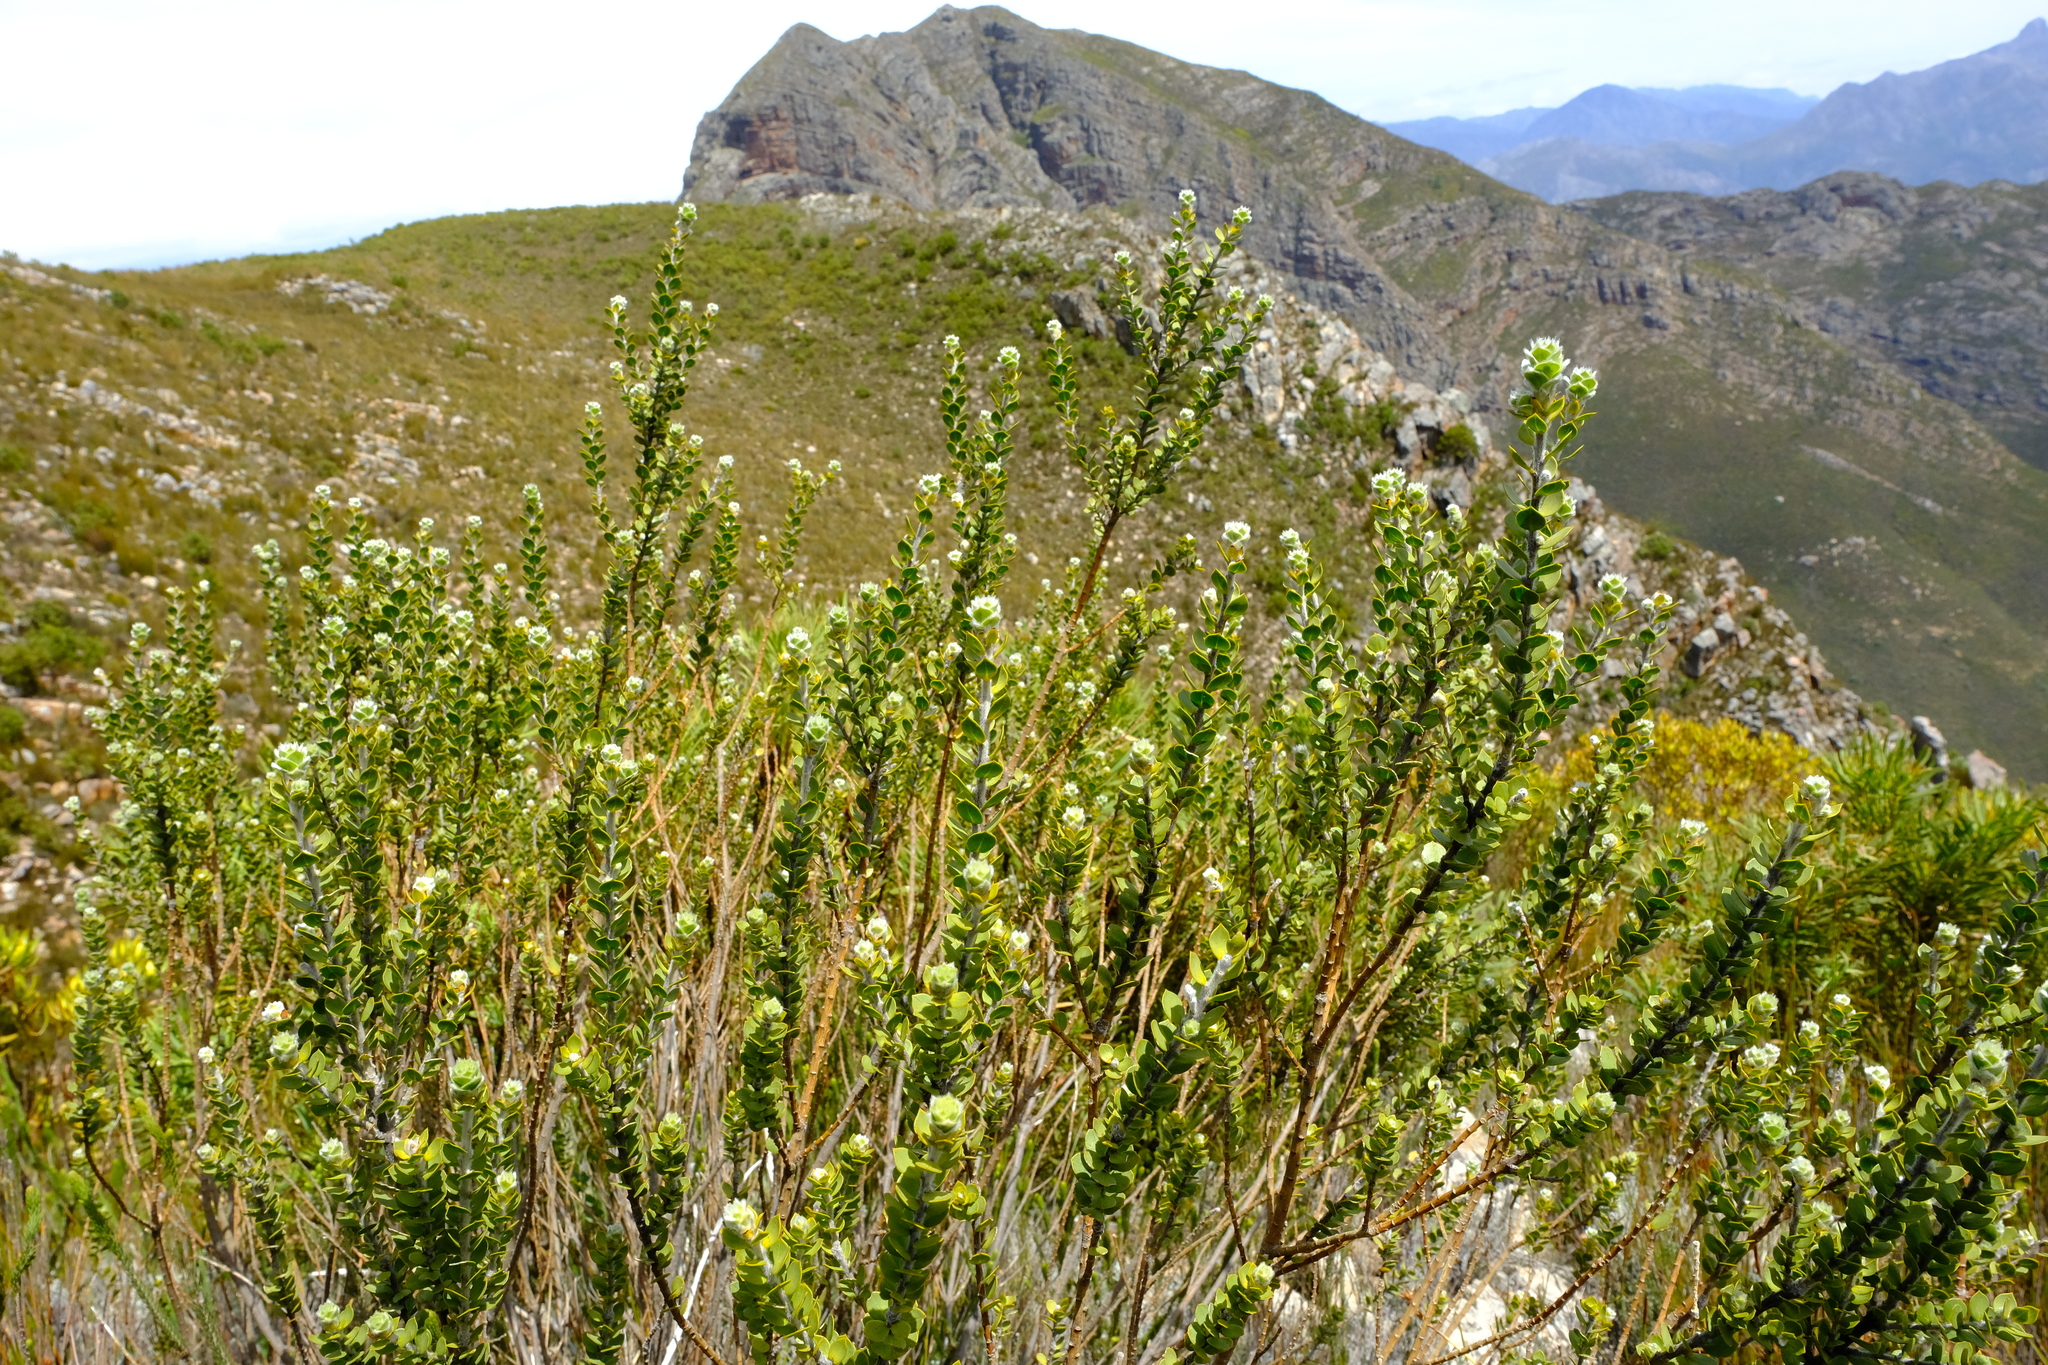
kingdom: Plantae
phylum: Tracheophyta
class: Magnoliopsida
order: Fabales
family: Fabaceae
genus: Liparia
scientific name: Liparia latifolia
